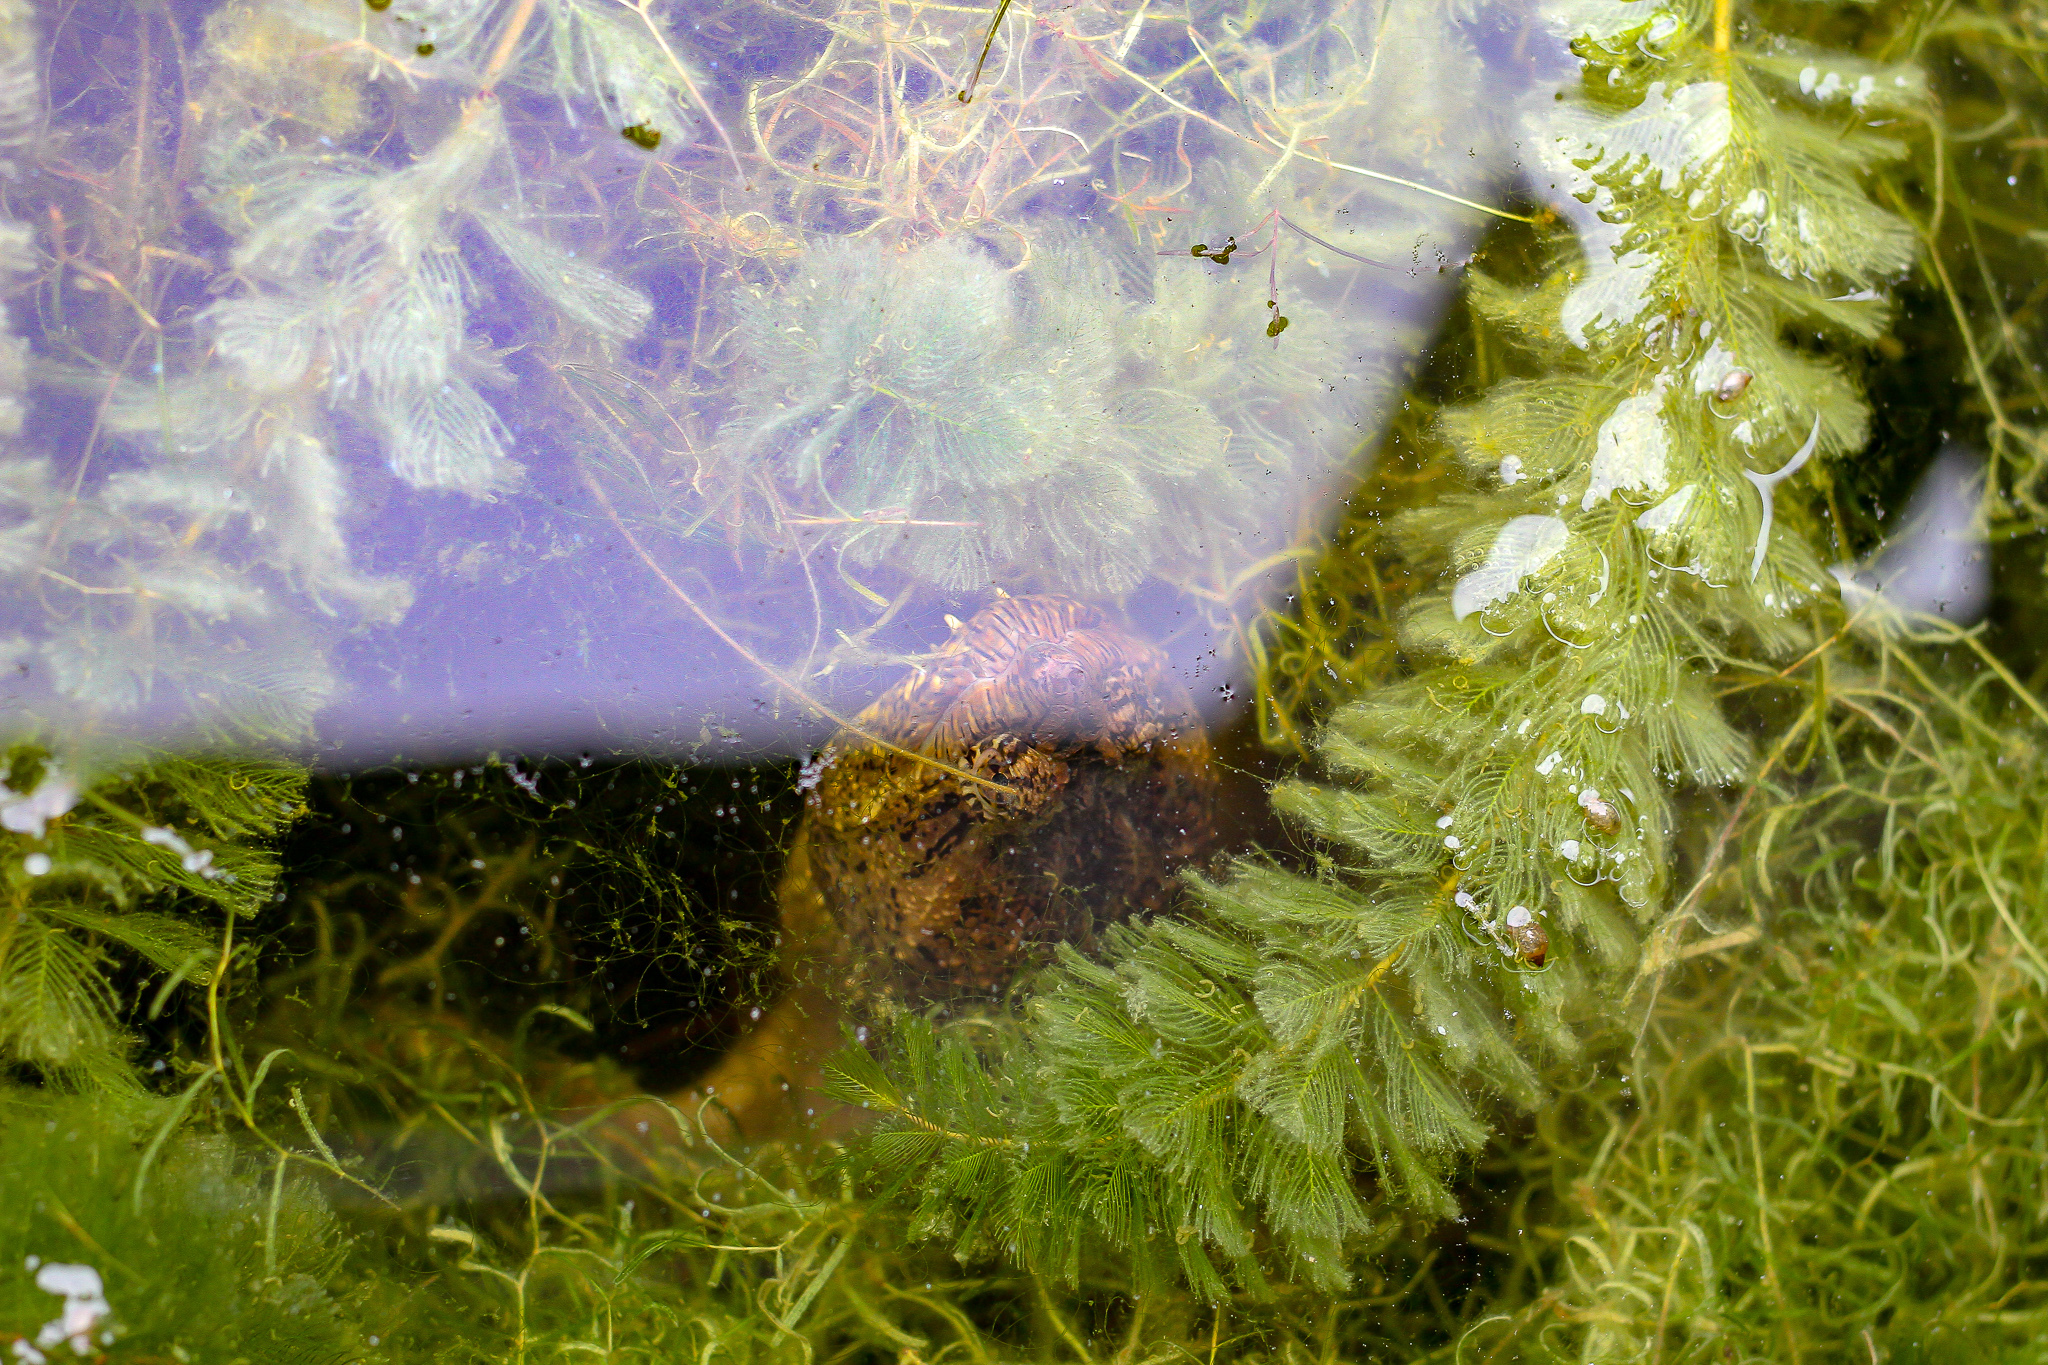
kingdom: Animalia
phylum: Chordata
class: Testudines
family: Chelydridae
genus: Chelydra
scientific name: Chelydra serpentina
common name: Common snapping turtle
